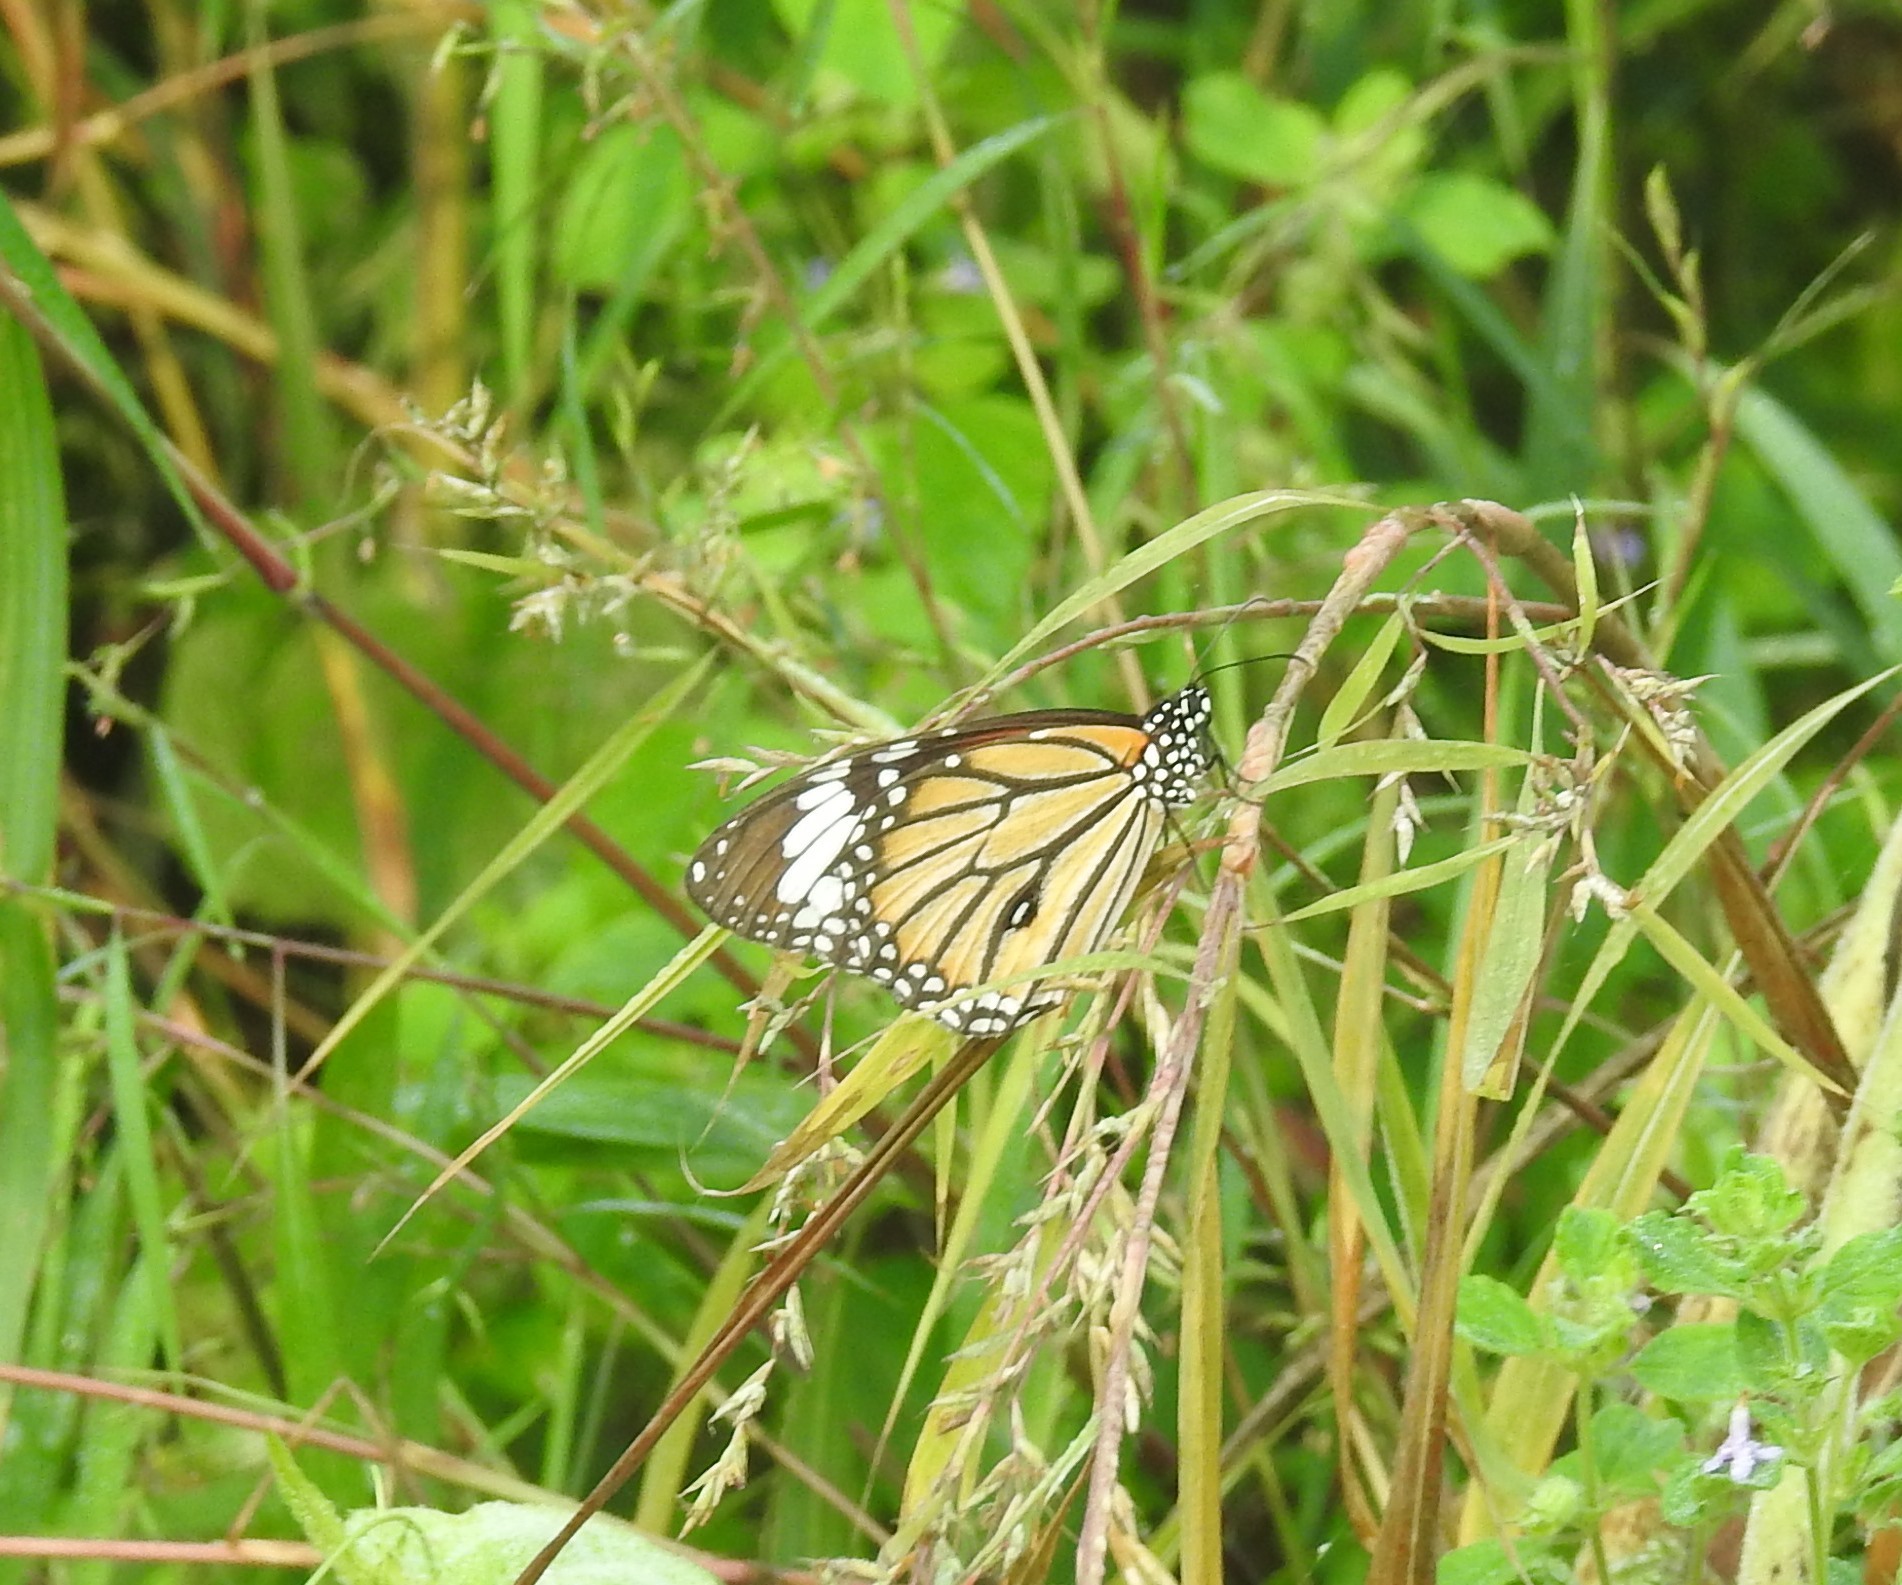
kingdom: Animalia
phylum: Arthropoda
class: Insecta
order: Lepidoptera
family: Nymphalidae
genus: Danaus
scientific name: Danaus genutia
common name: Common tiger butterfly
